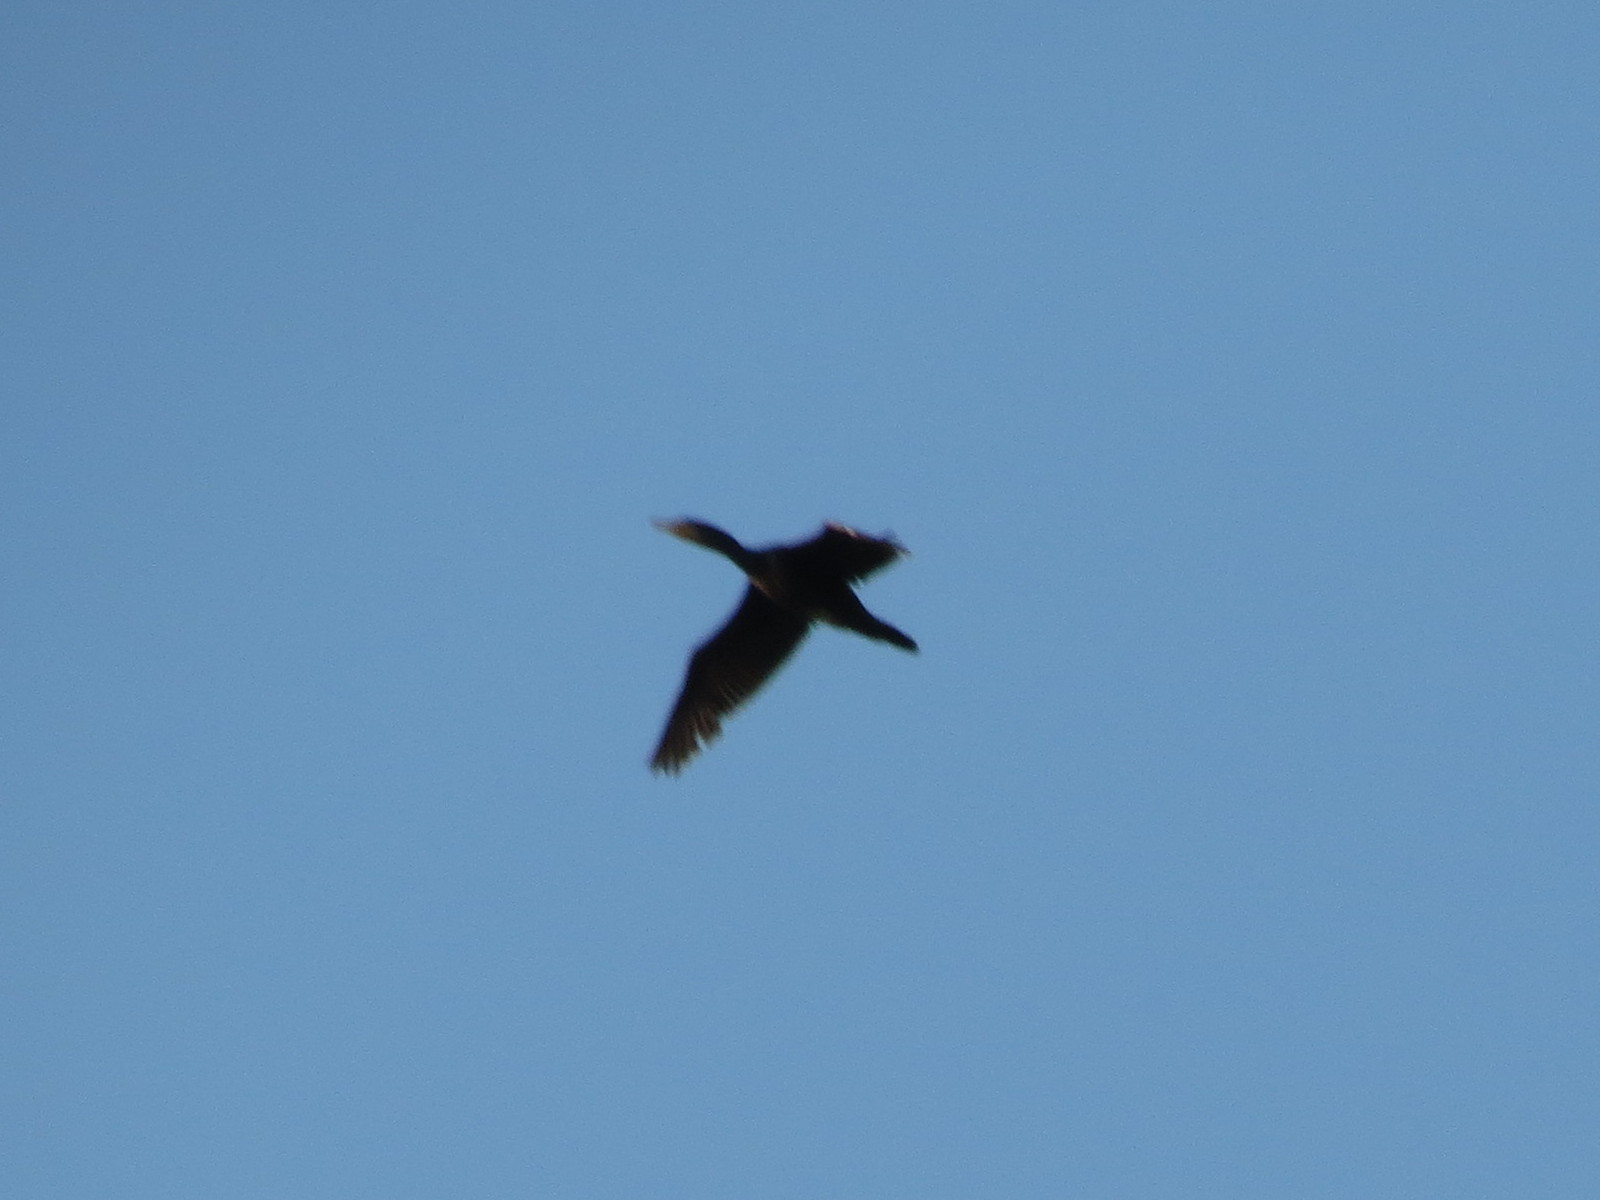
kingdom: Animalia
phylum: Chordata
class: Aves
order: Suliformes
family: Phalacrocoracidae
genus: Phalacrocorax
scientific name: Phalacrocorax carbo
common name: Great cormorant
